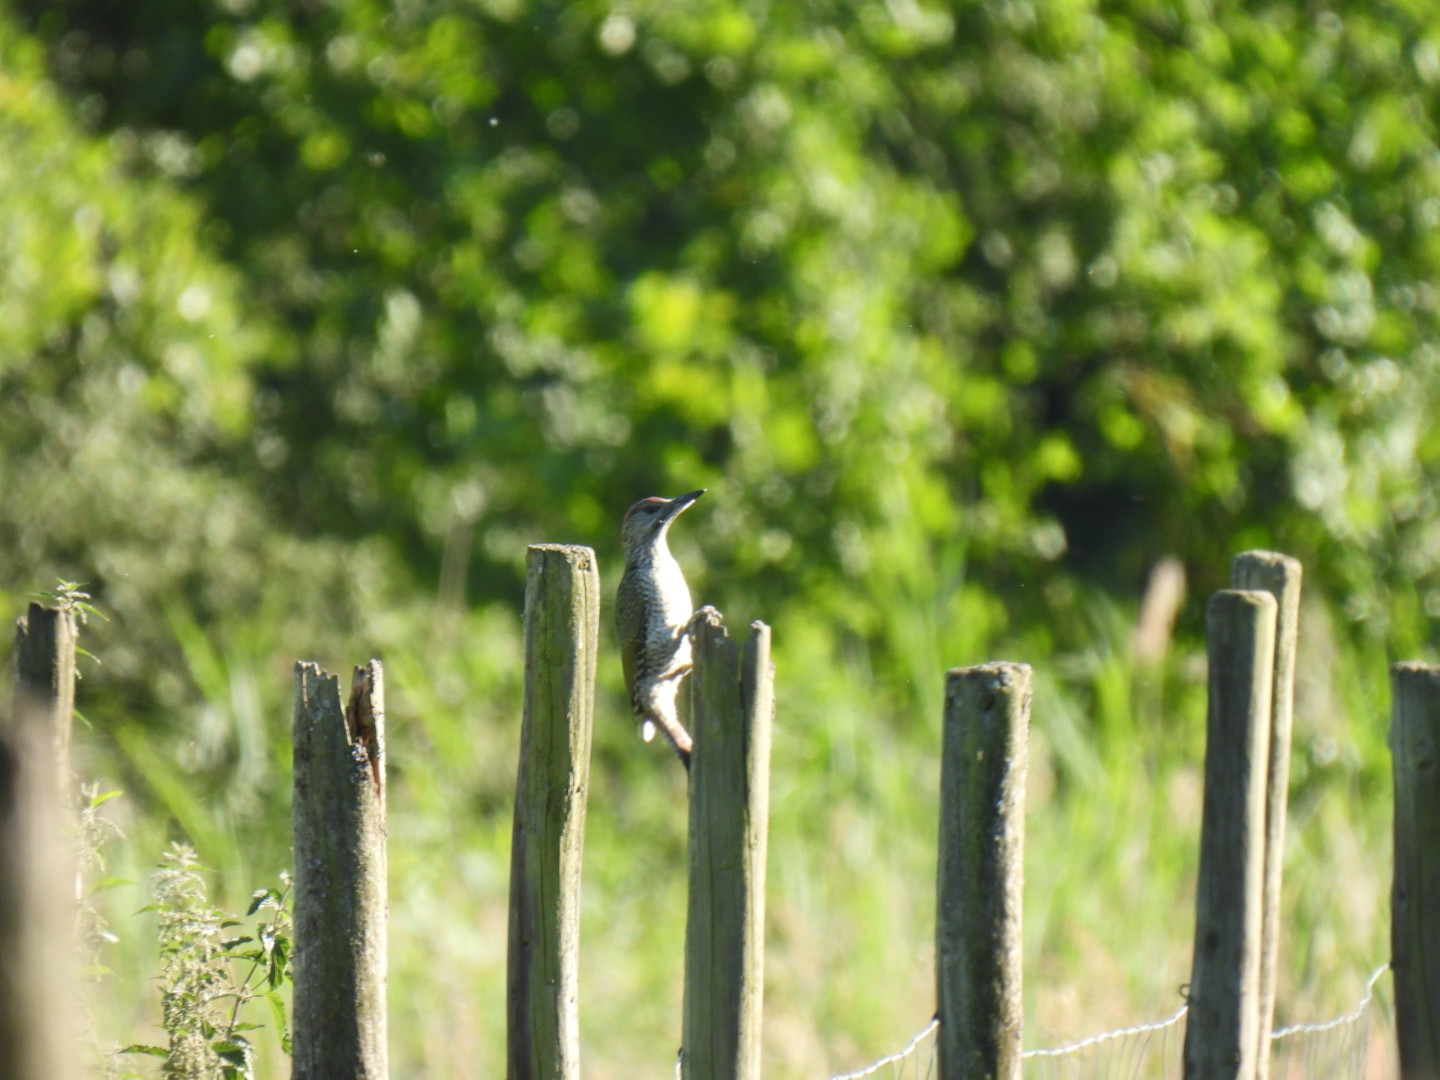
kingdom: Animalia
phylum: Chordata
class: Aves
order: Piciformes
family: Picidae
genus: Picus
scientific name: Picus viridis
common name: European green woodpecker
